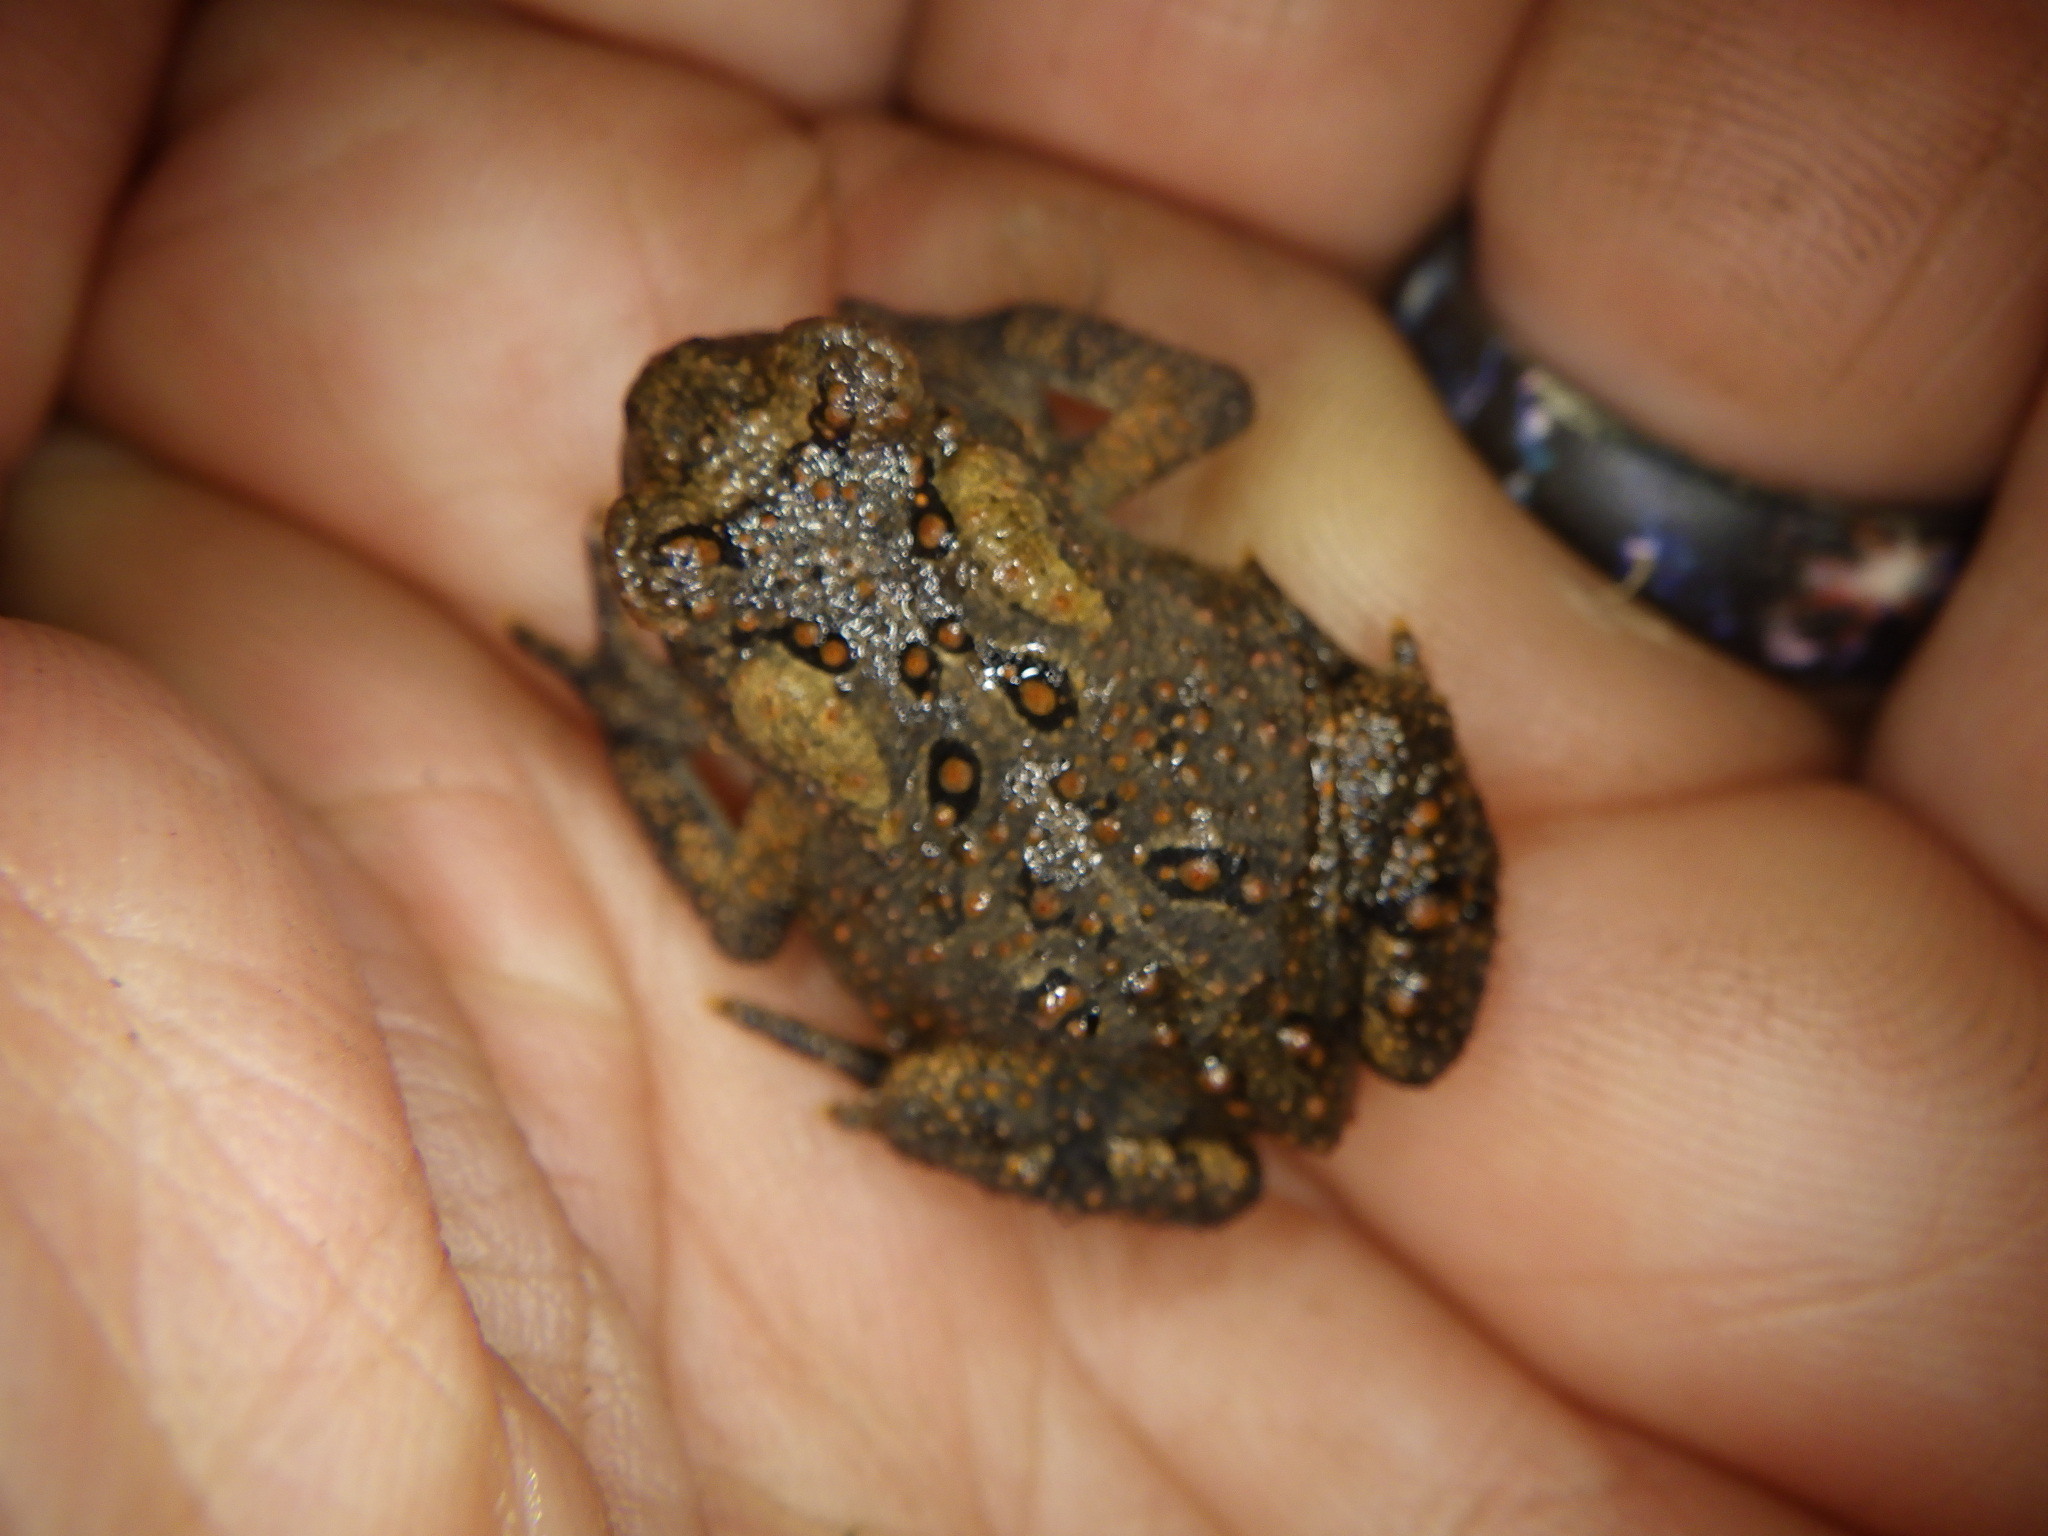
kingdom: Animalia
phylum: Chordata
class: Amphibia
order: Anura
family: Bufonidae
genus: Anaxyrus
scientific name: Anaxyrus americanus
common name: American toad
